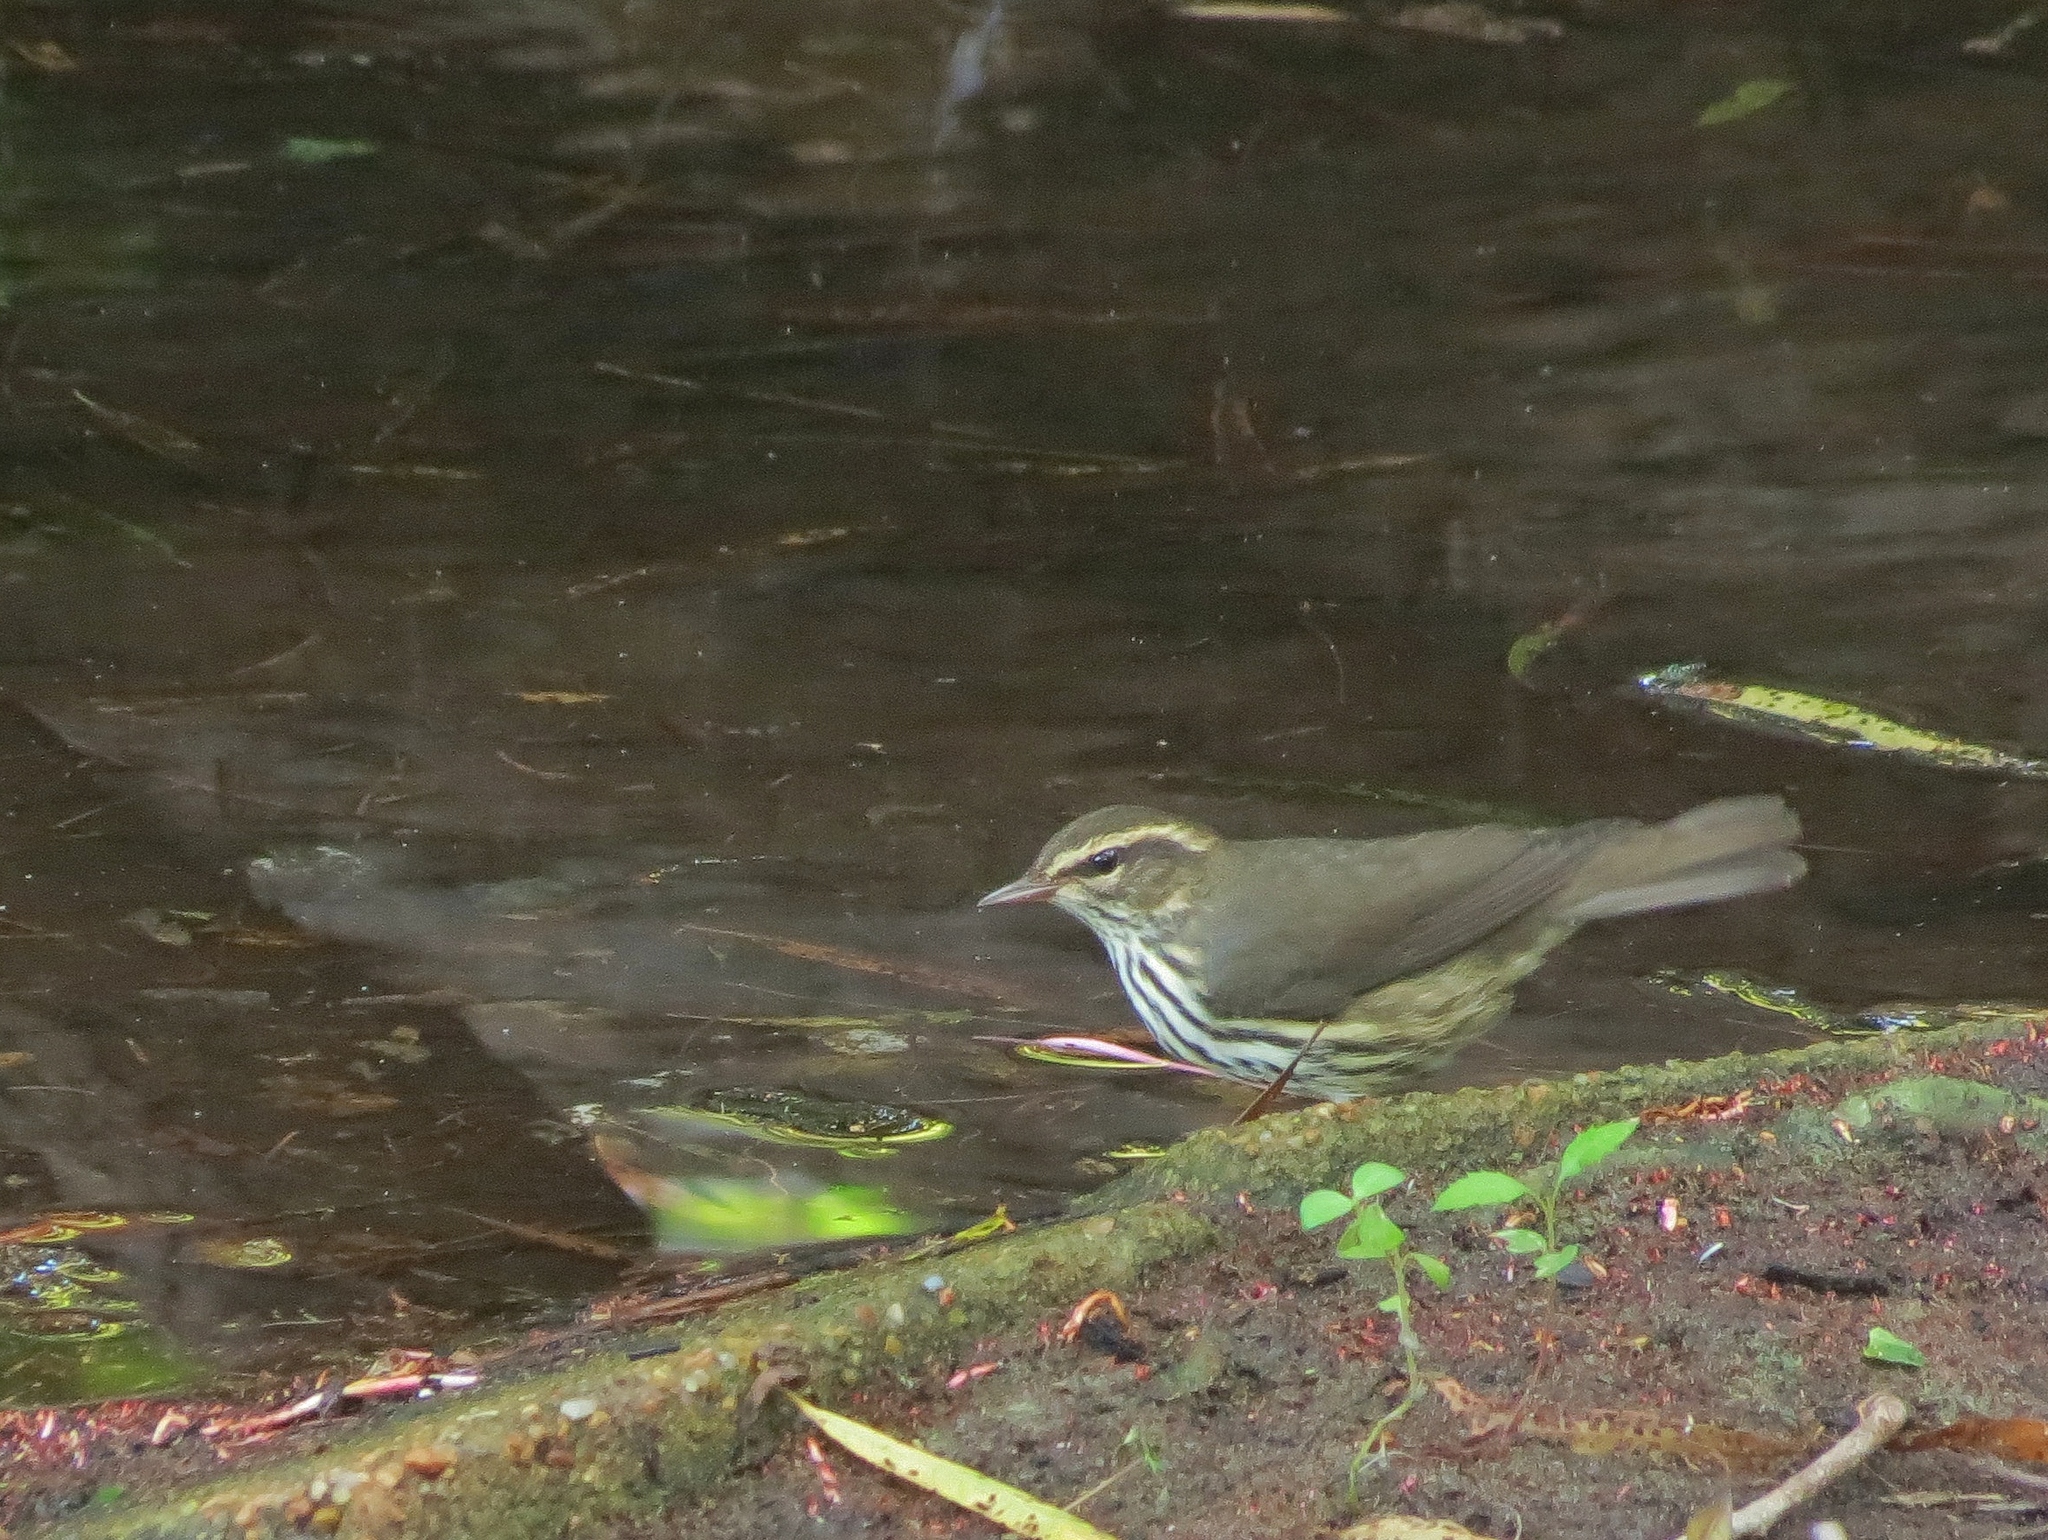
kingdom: Animalia
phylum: Chordata
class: Aves
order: Passeriformes
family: Parulidae
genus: Parkesia
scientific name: Parkesia noveboracensis
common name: Northern waterthrush
